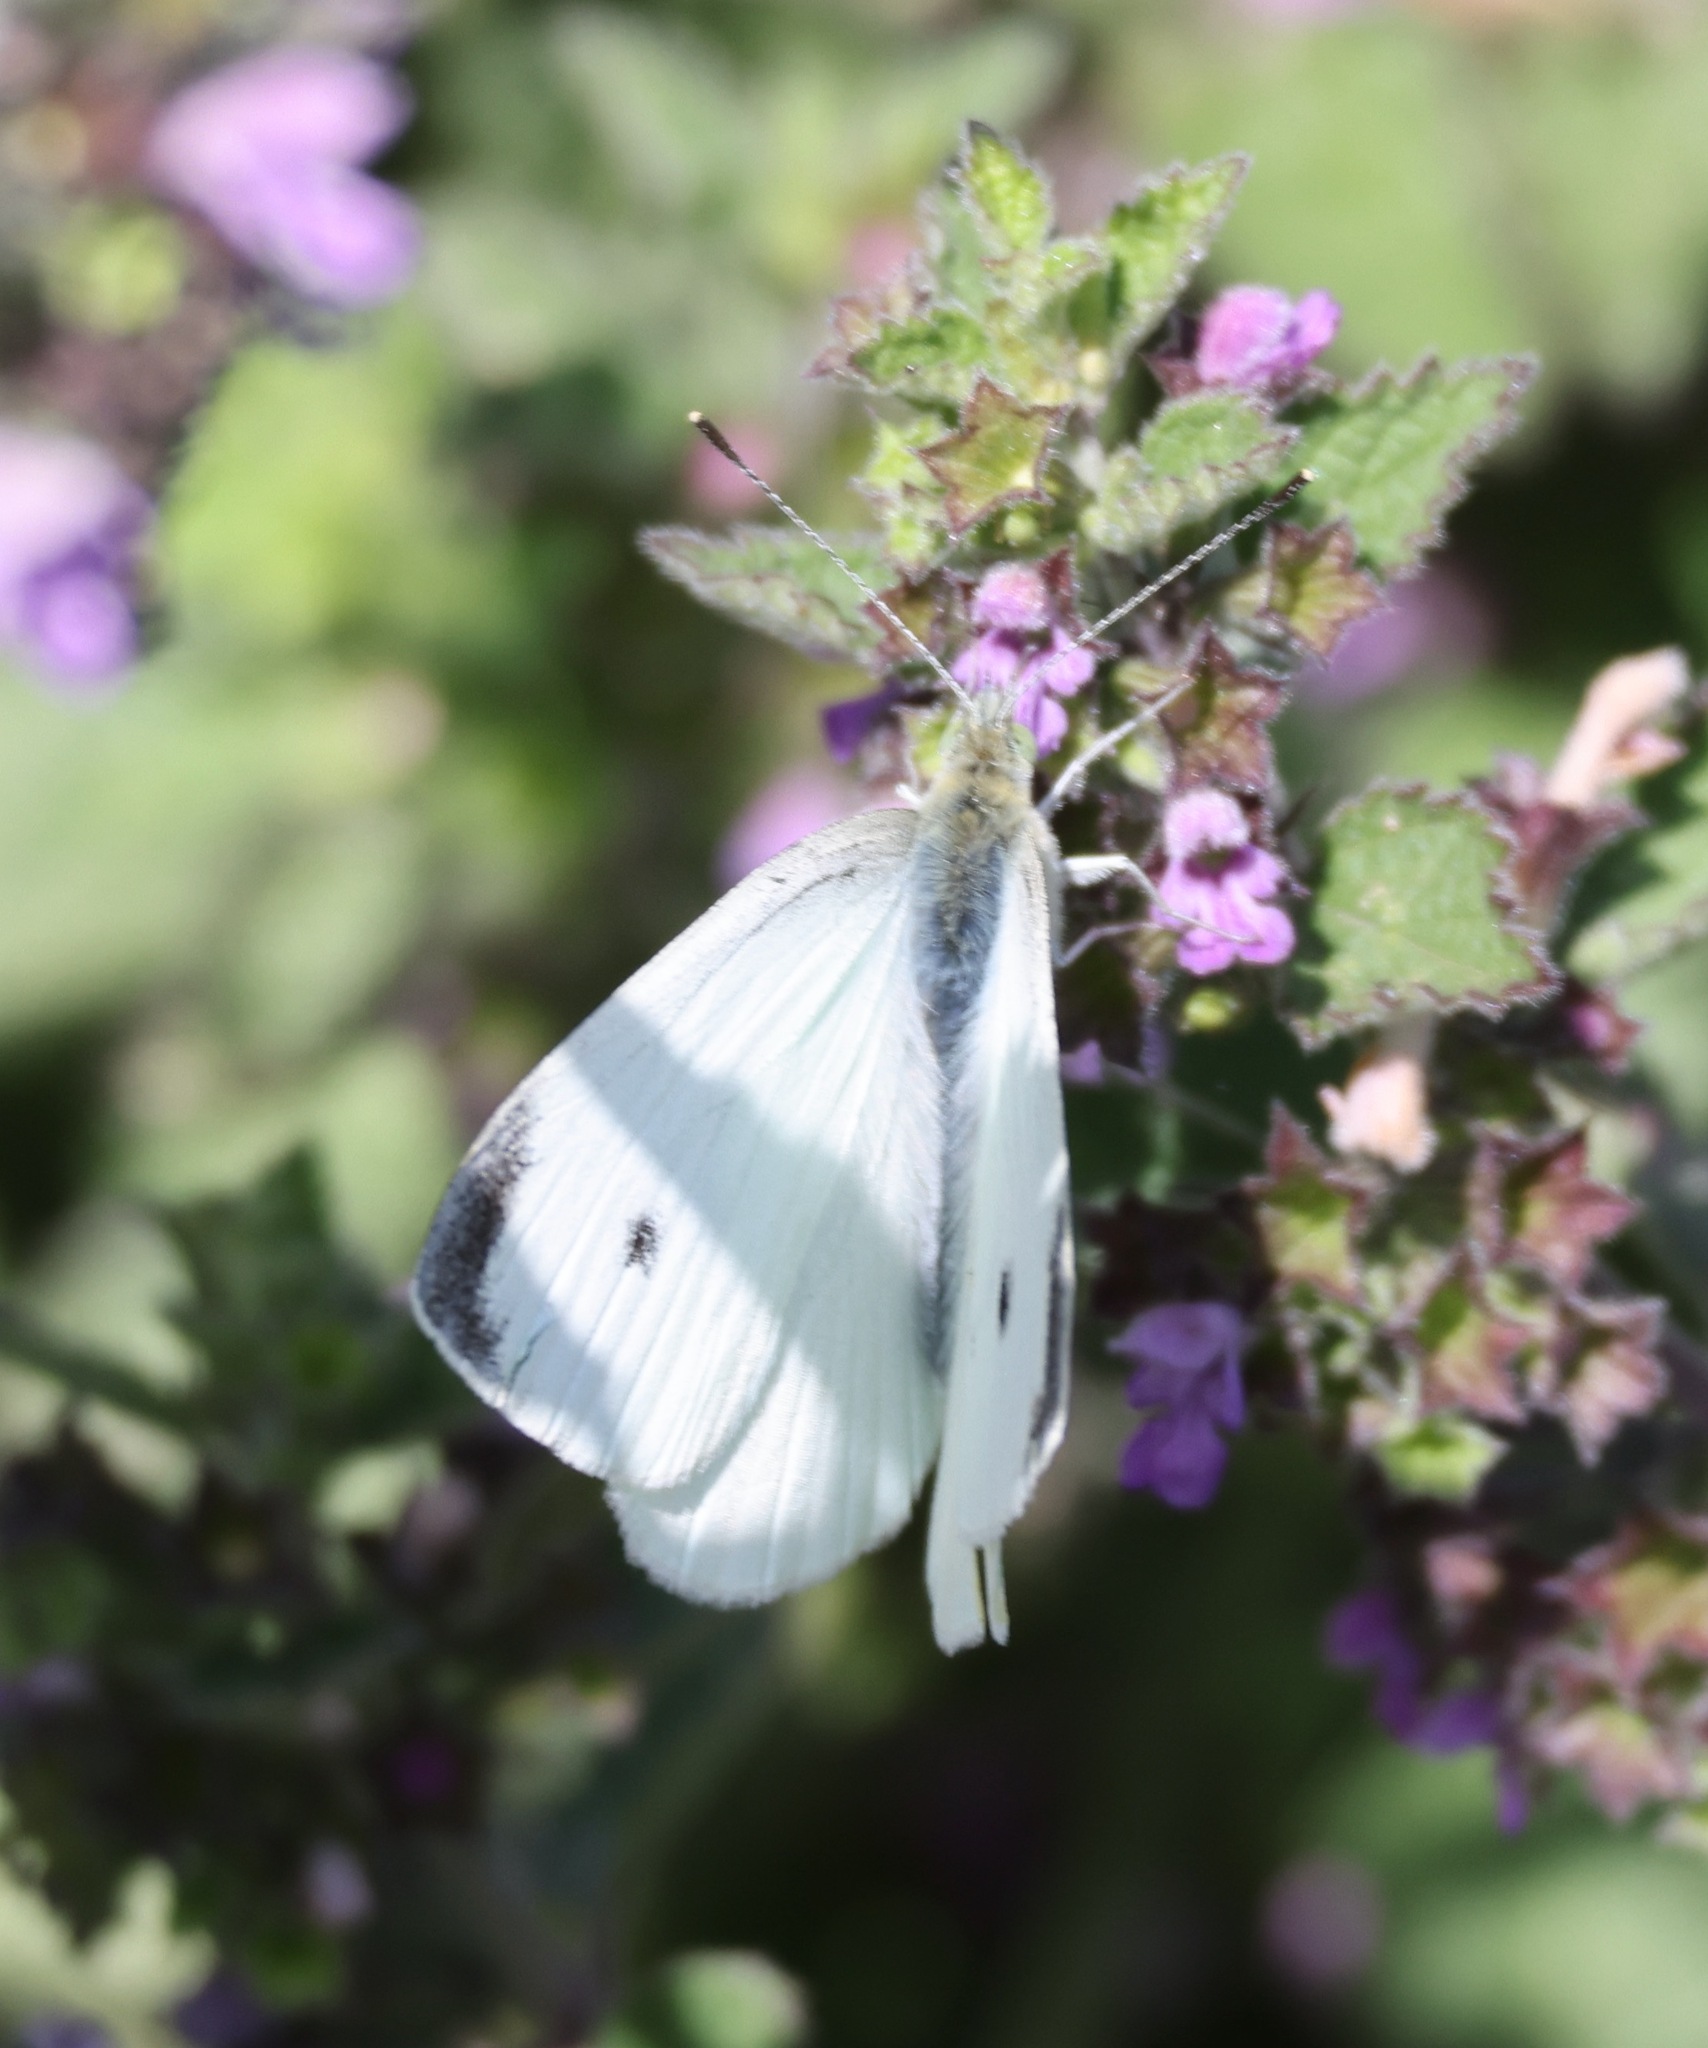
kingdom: Animalia
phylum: Arthropoda
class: Insecta
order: Lepidoptera
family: Pieridae
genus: Pieris
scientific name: Pieris rapae
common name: Small white
